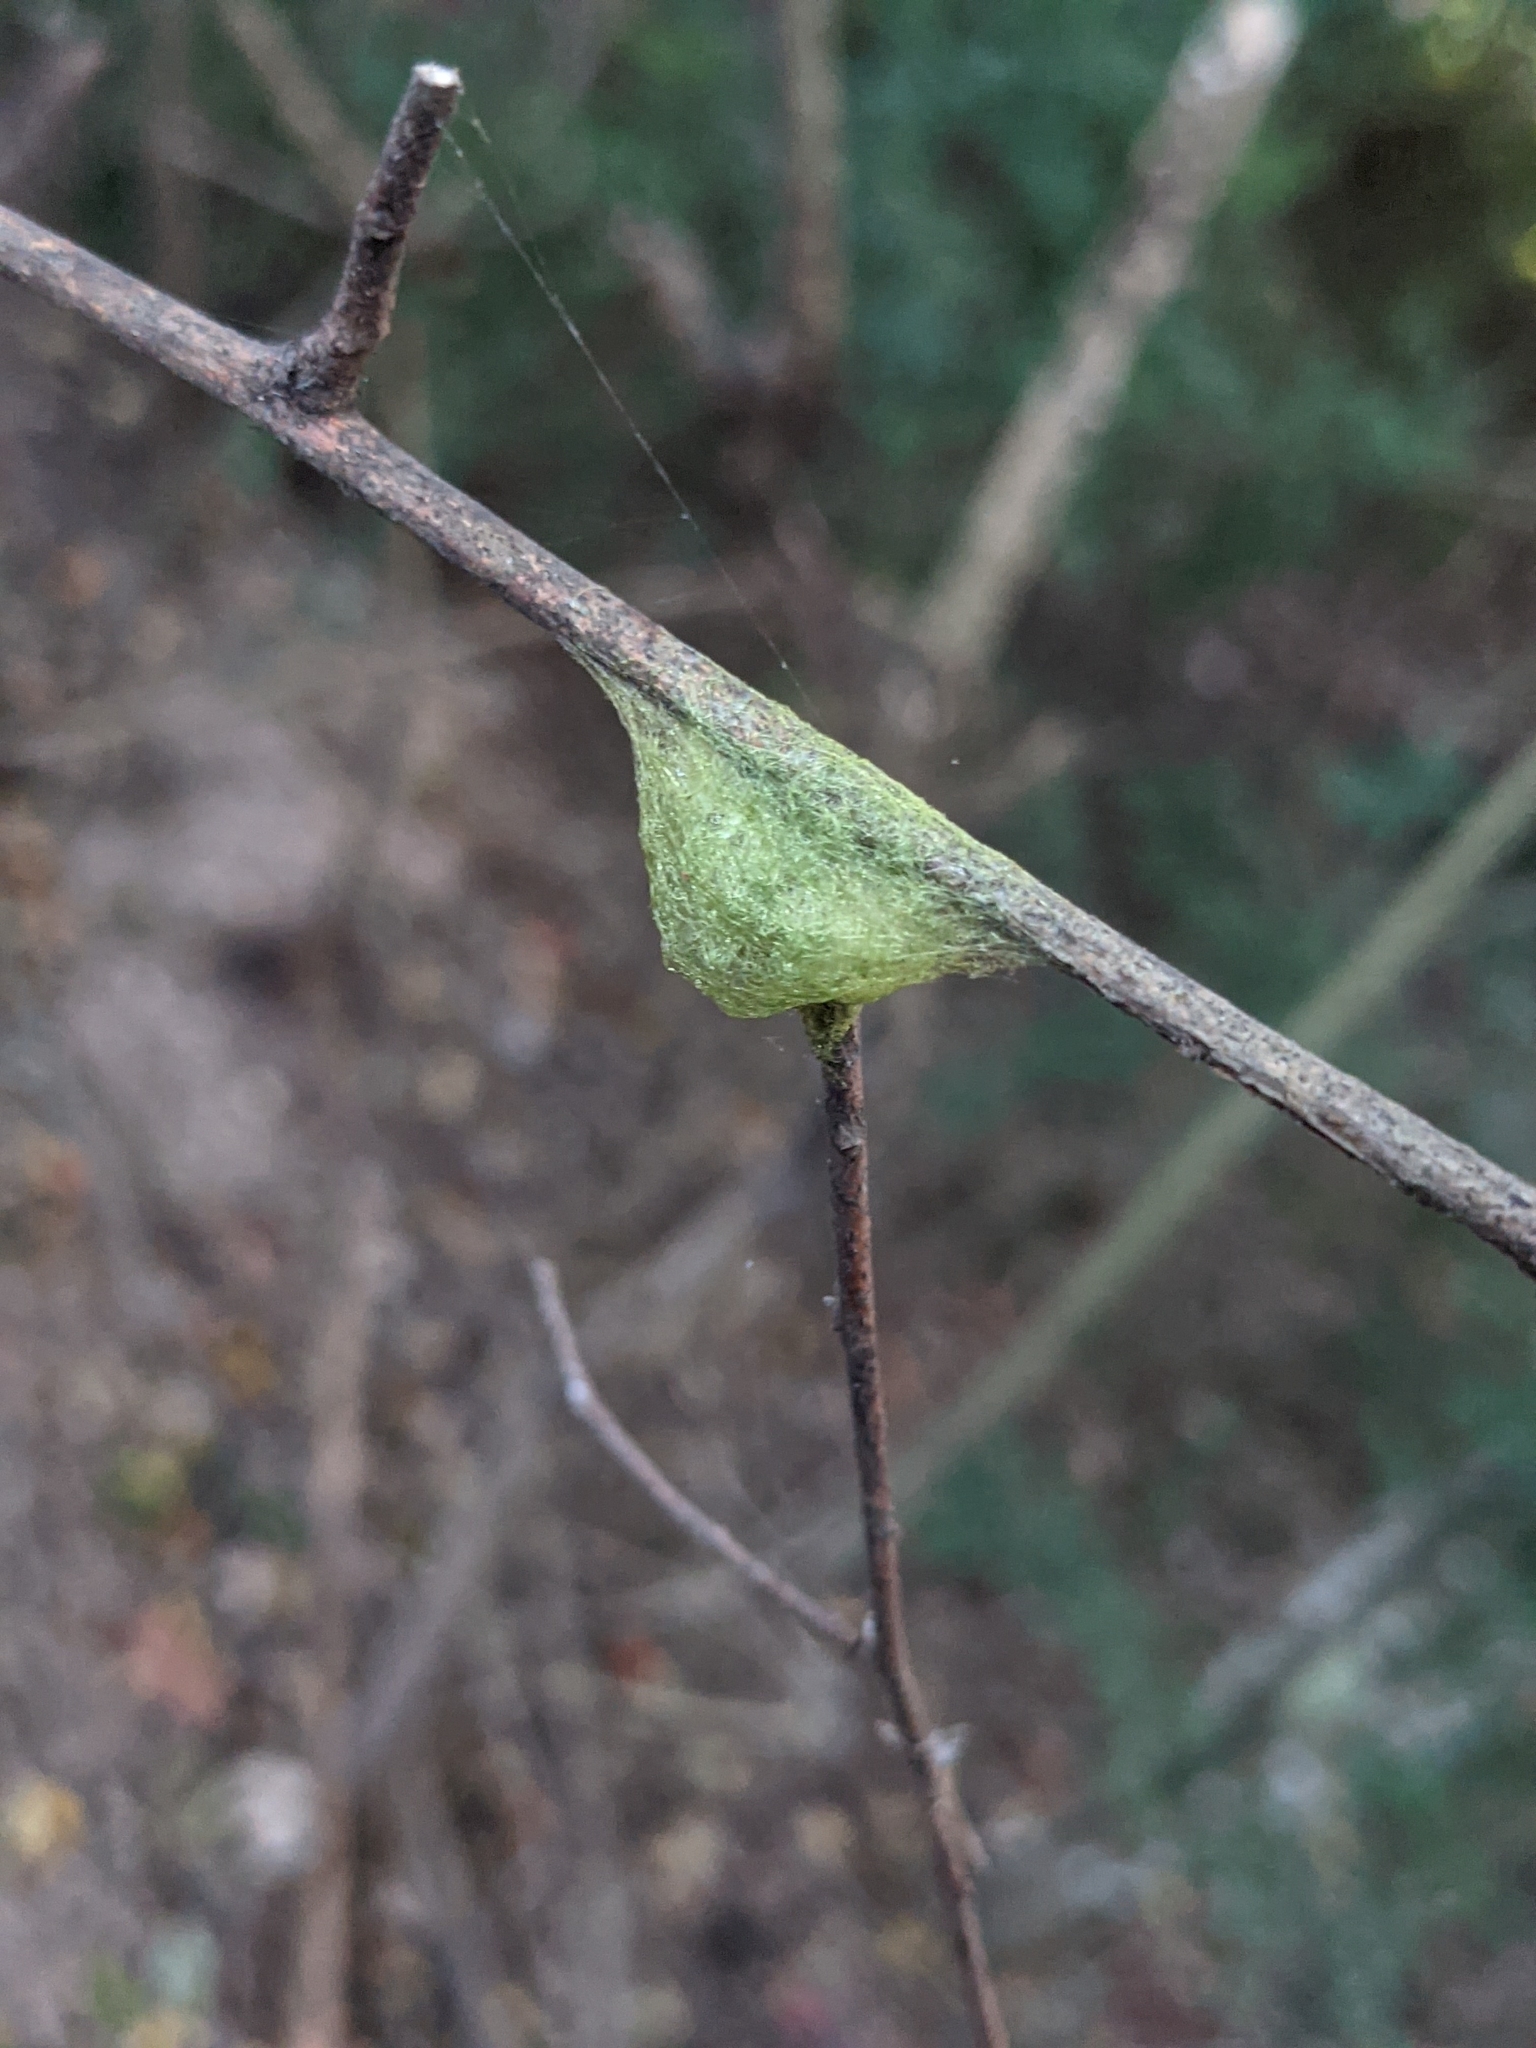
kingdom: Animalia
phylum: Arthropoda
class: Arachnida
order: Araneae
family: Araneidae
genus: Gasteracantha
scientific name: Gasteracantha cancriformis
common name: Orb weavers
